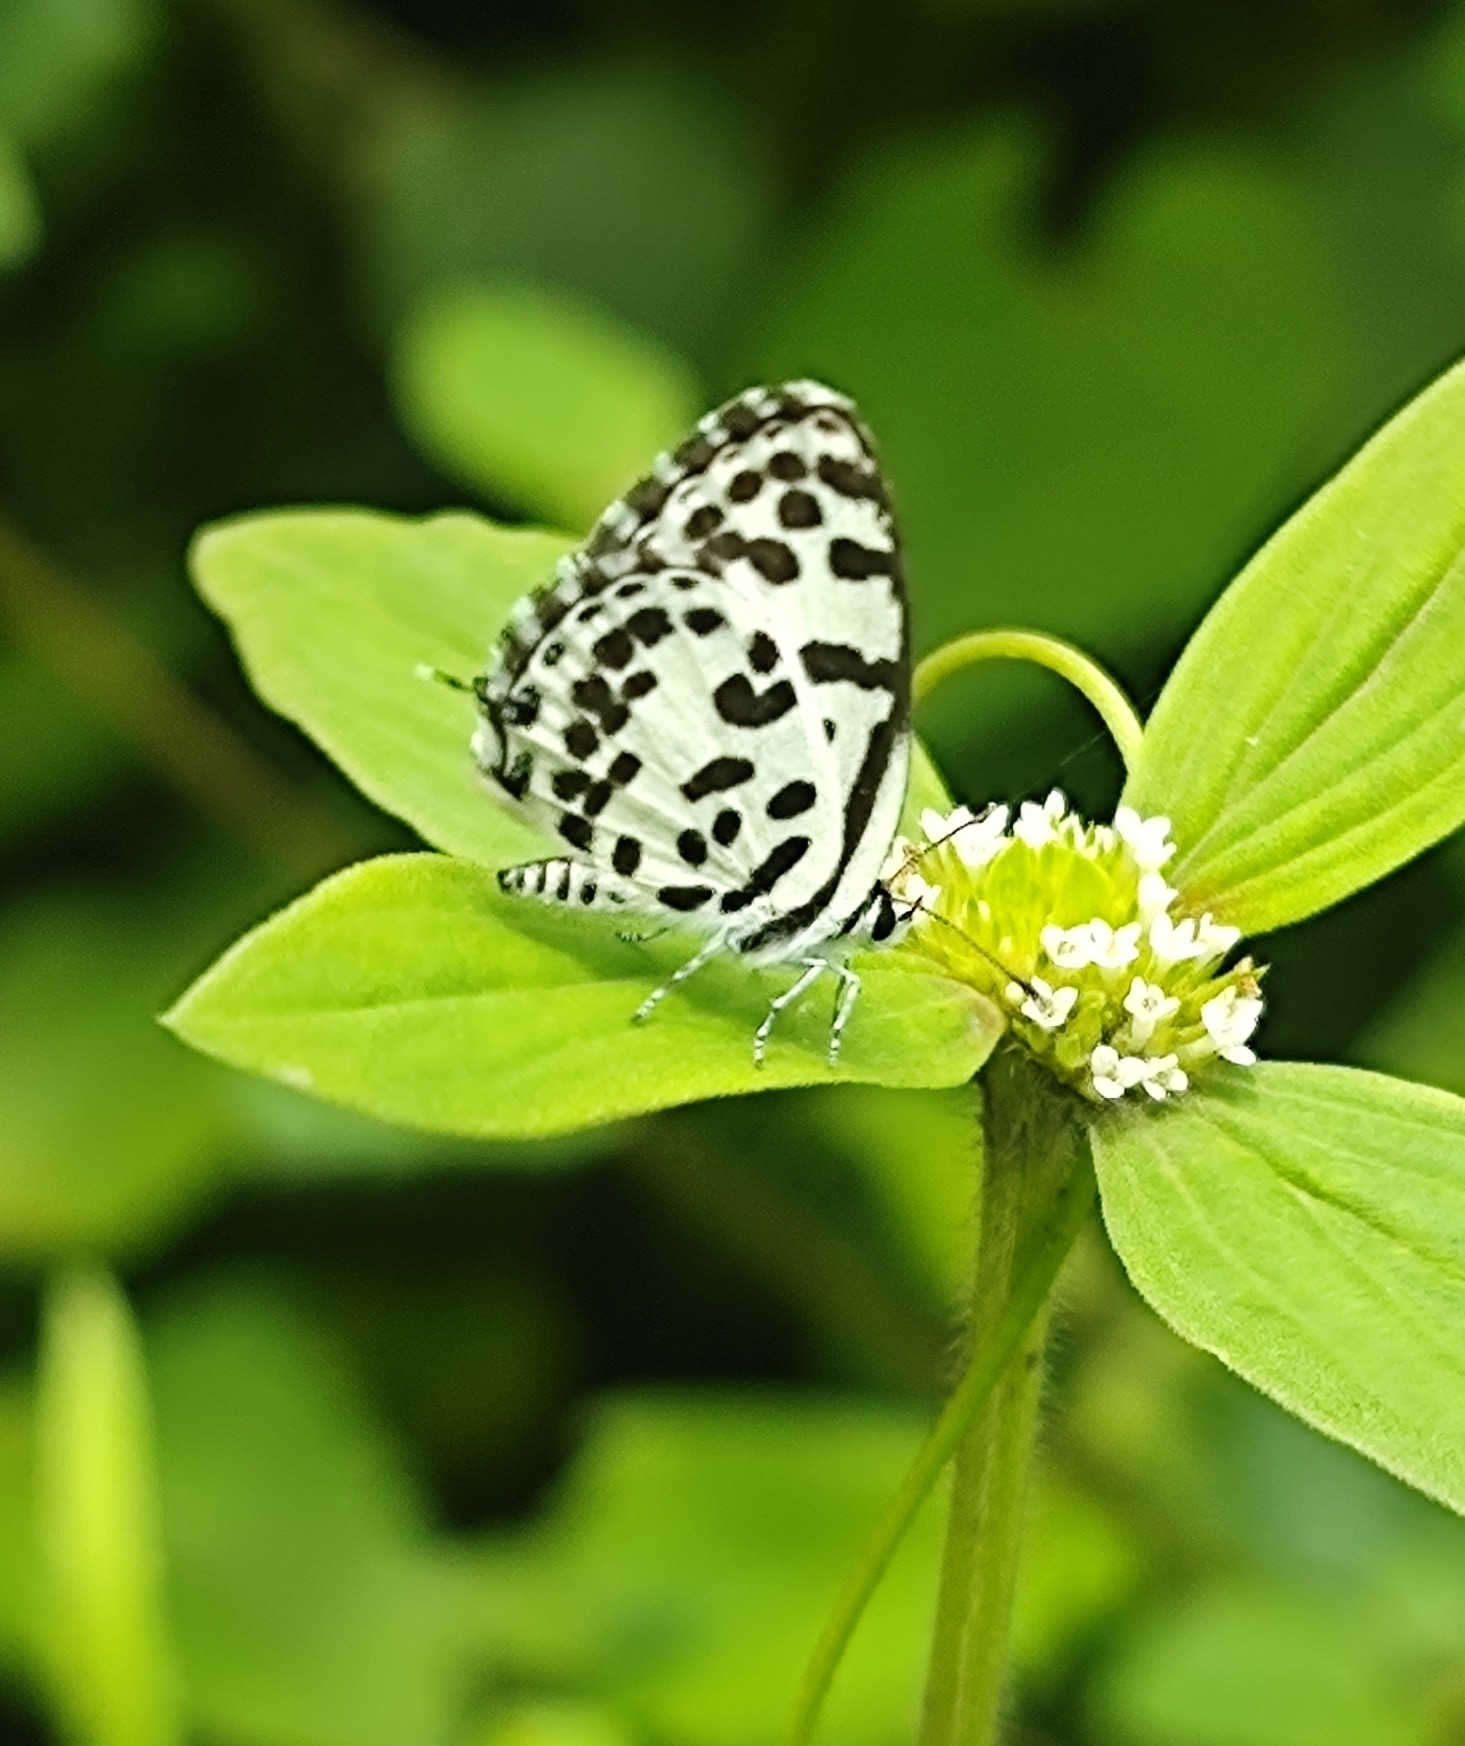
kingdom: Animalia
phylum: Arthropoda
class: Insecta
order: Lepidoptera
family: Lycaenidae
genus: Castalius
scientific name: Castalius rosimon
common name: Common pierrot
